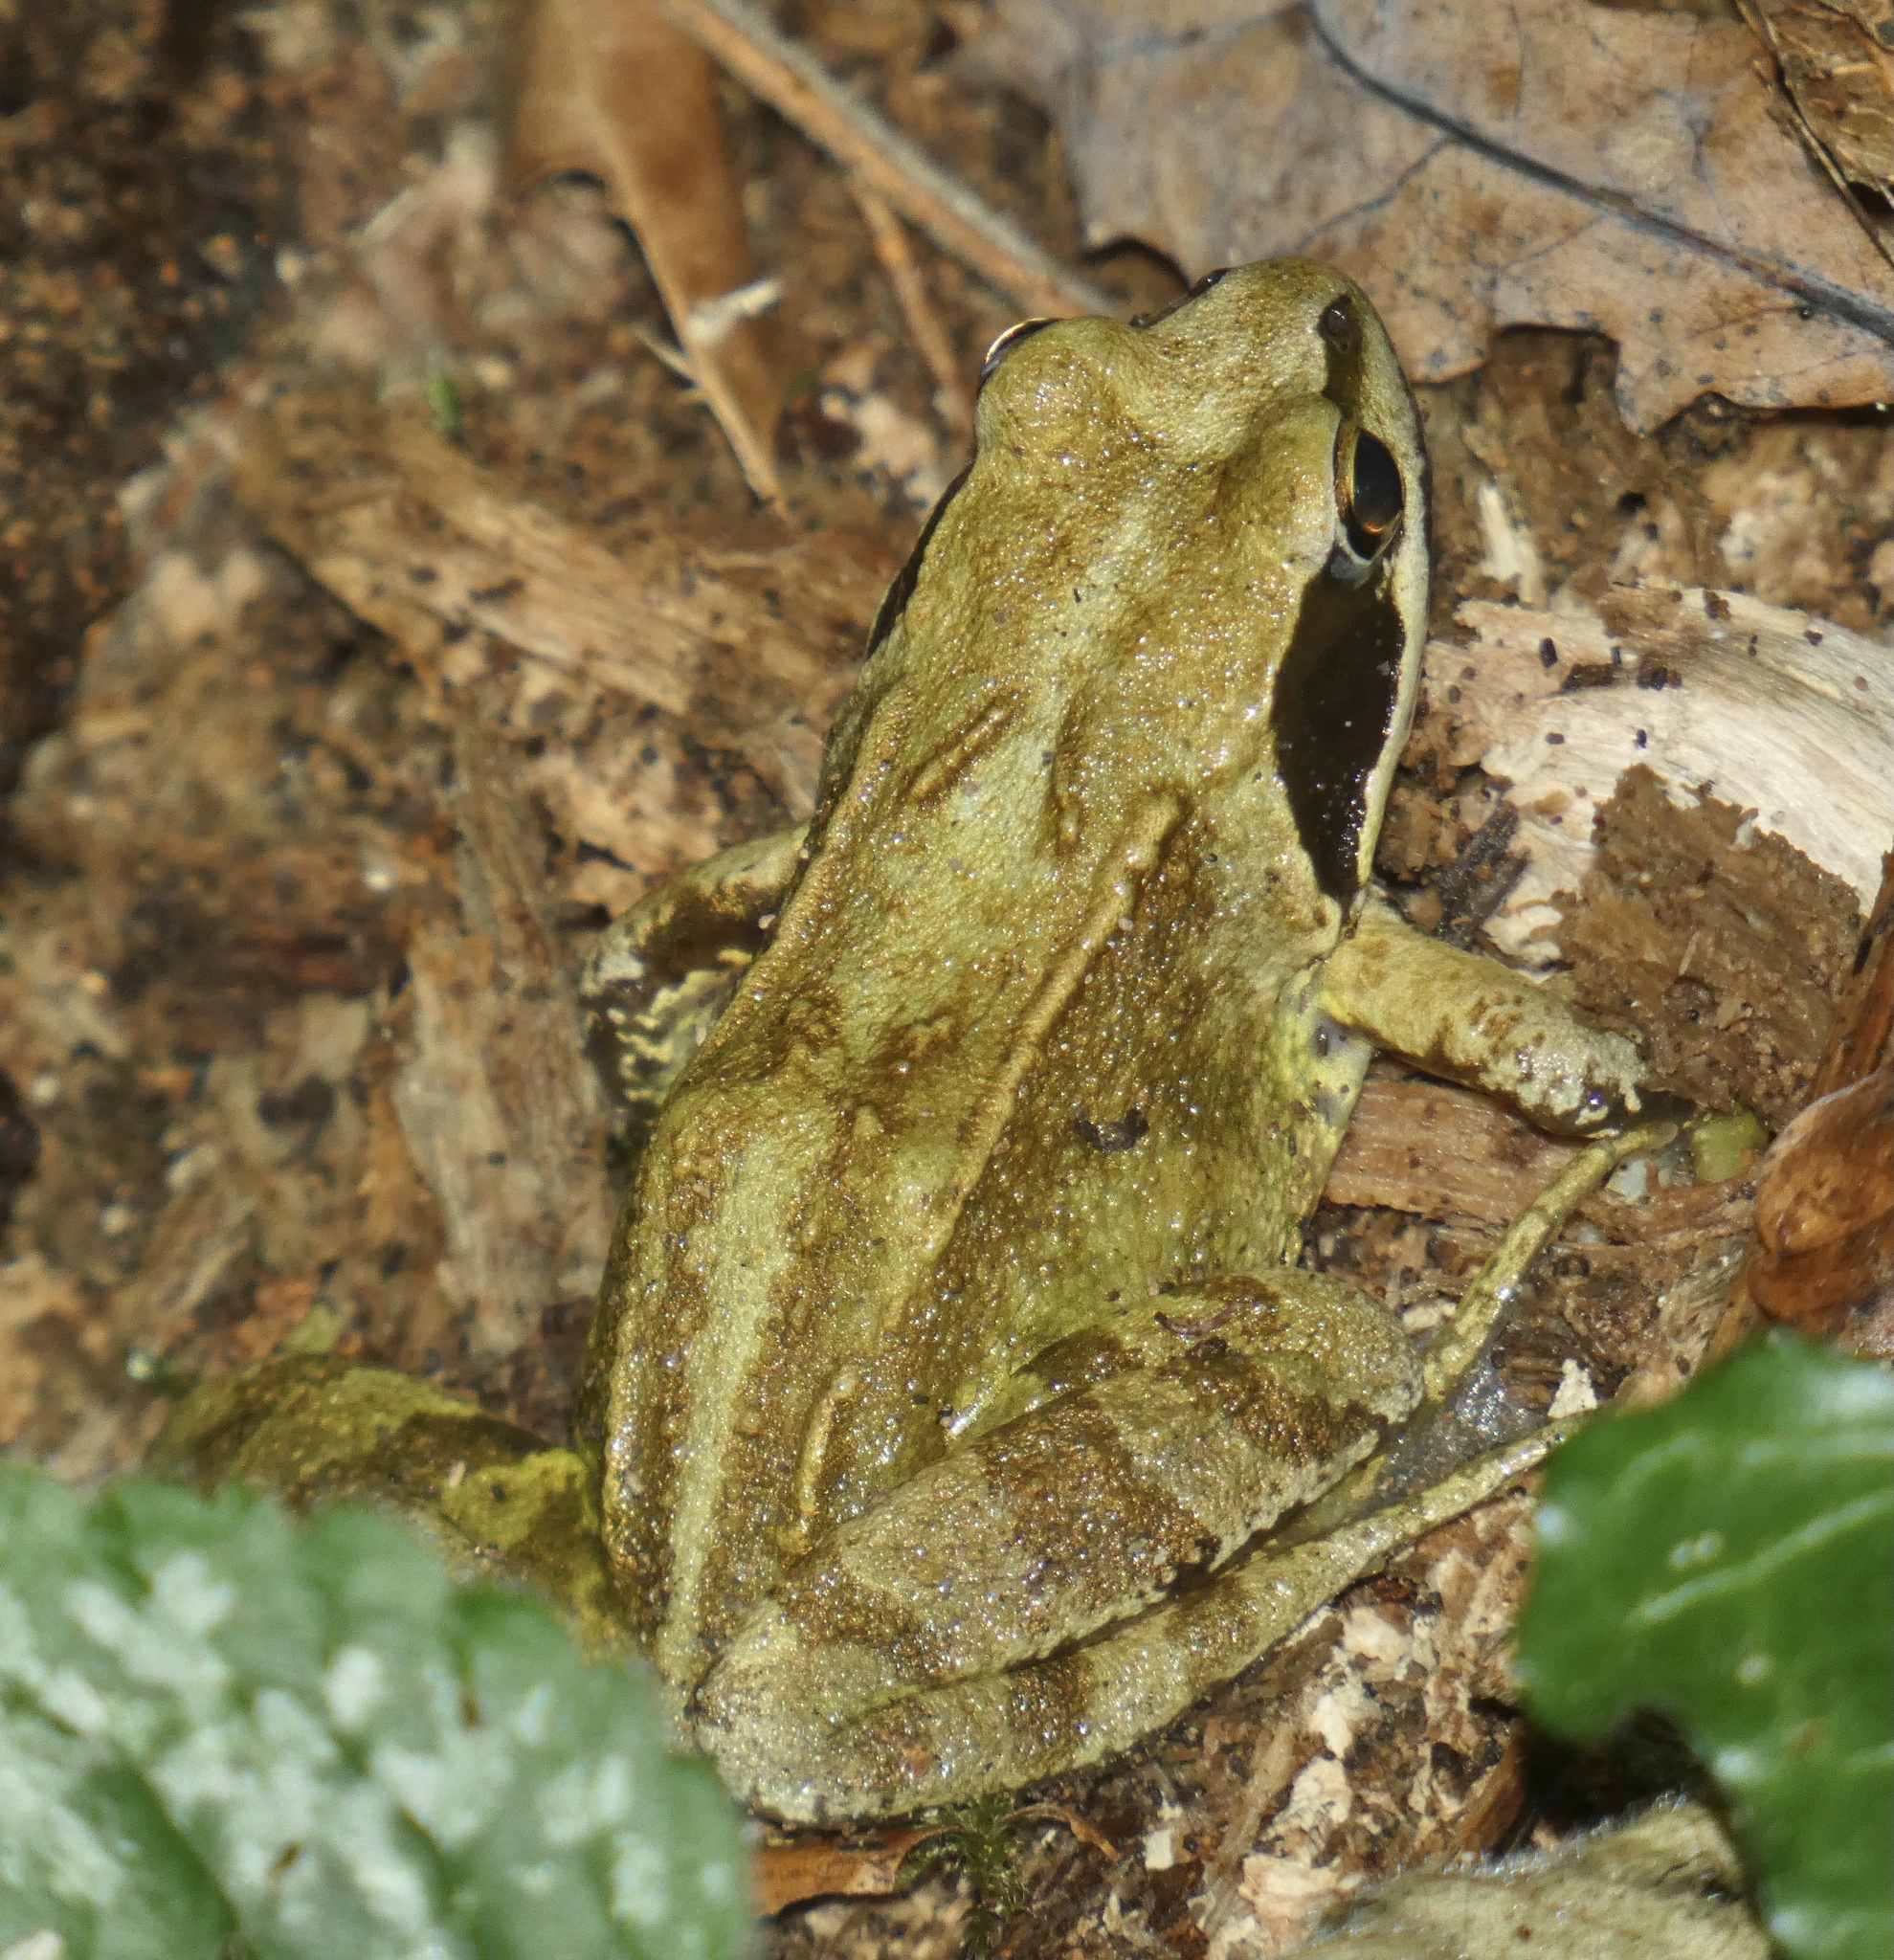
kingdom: Animalia
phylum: Chordata
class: Amphibia
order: Anura
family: Ranidae
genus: Rana
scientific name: Rana temporaria
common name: Common frog
